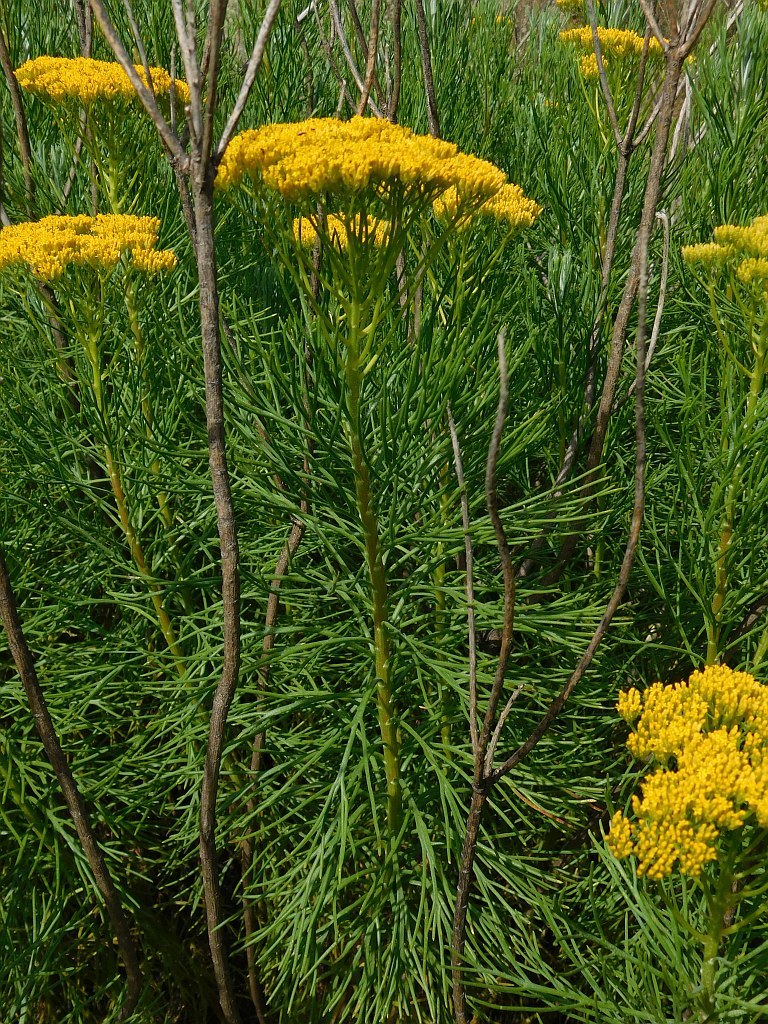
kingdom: Plantae
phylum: Tracheophyta
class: Magnoliopsida
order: Asterales
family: Asteraceae
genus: Hymenolepis
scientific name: Hymenolepis crithmifolia
